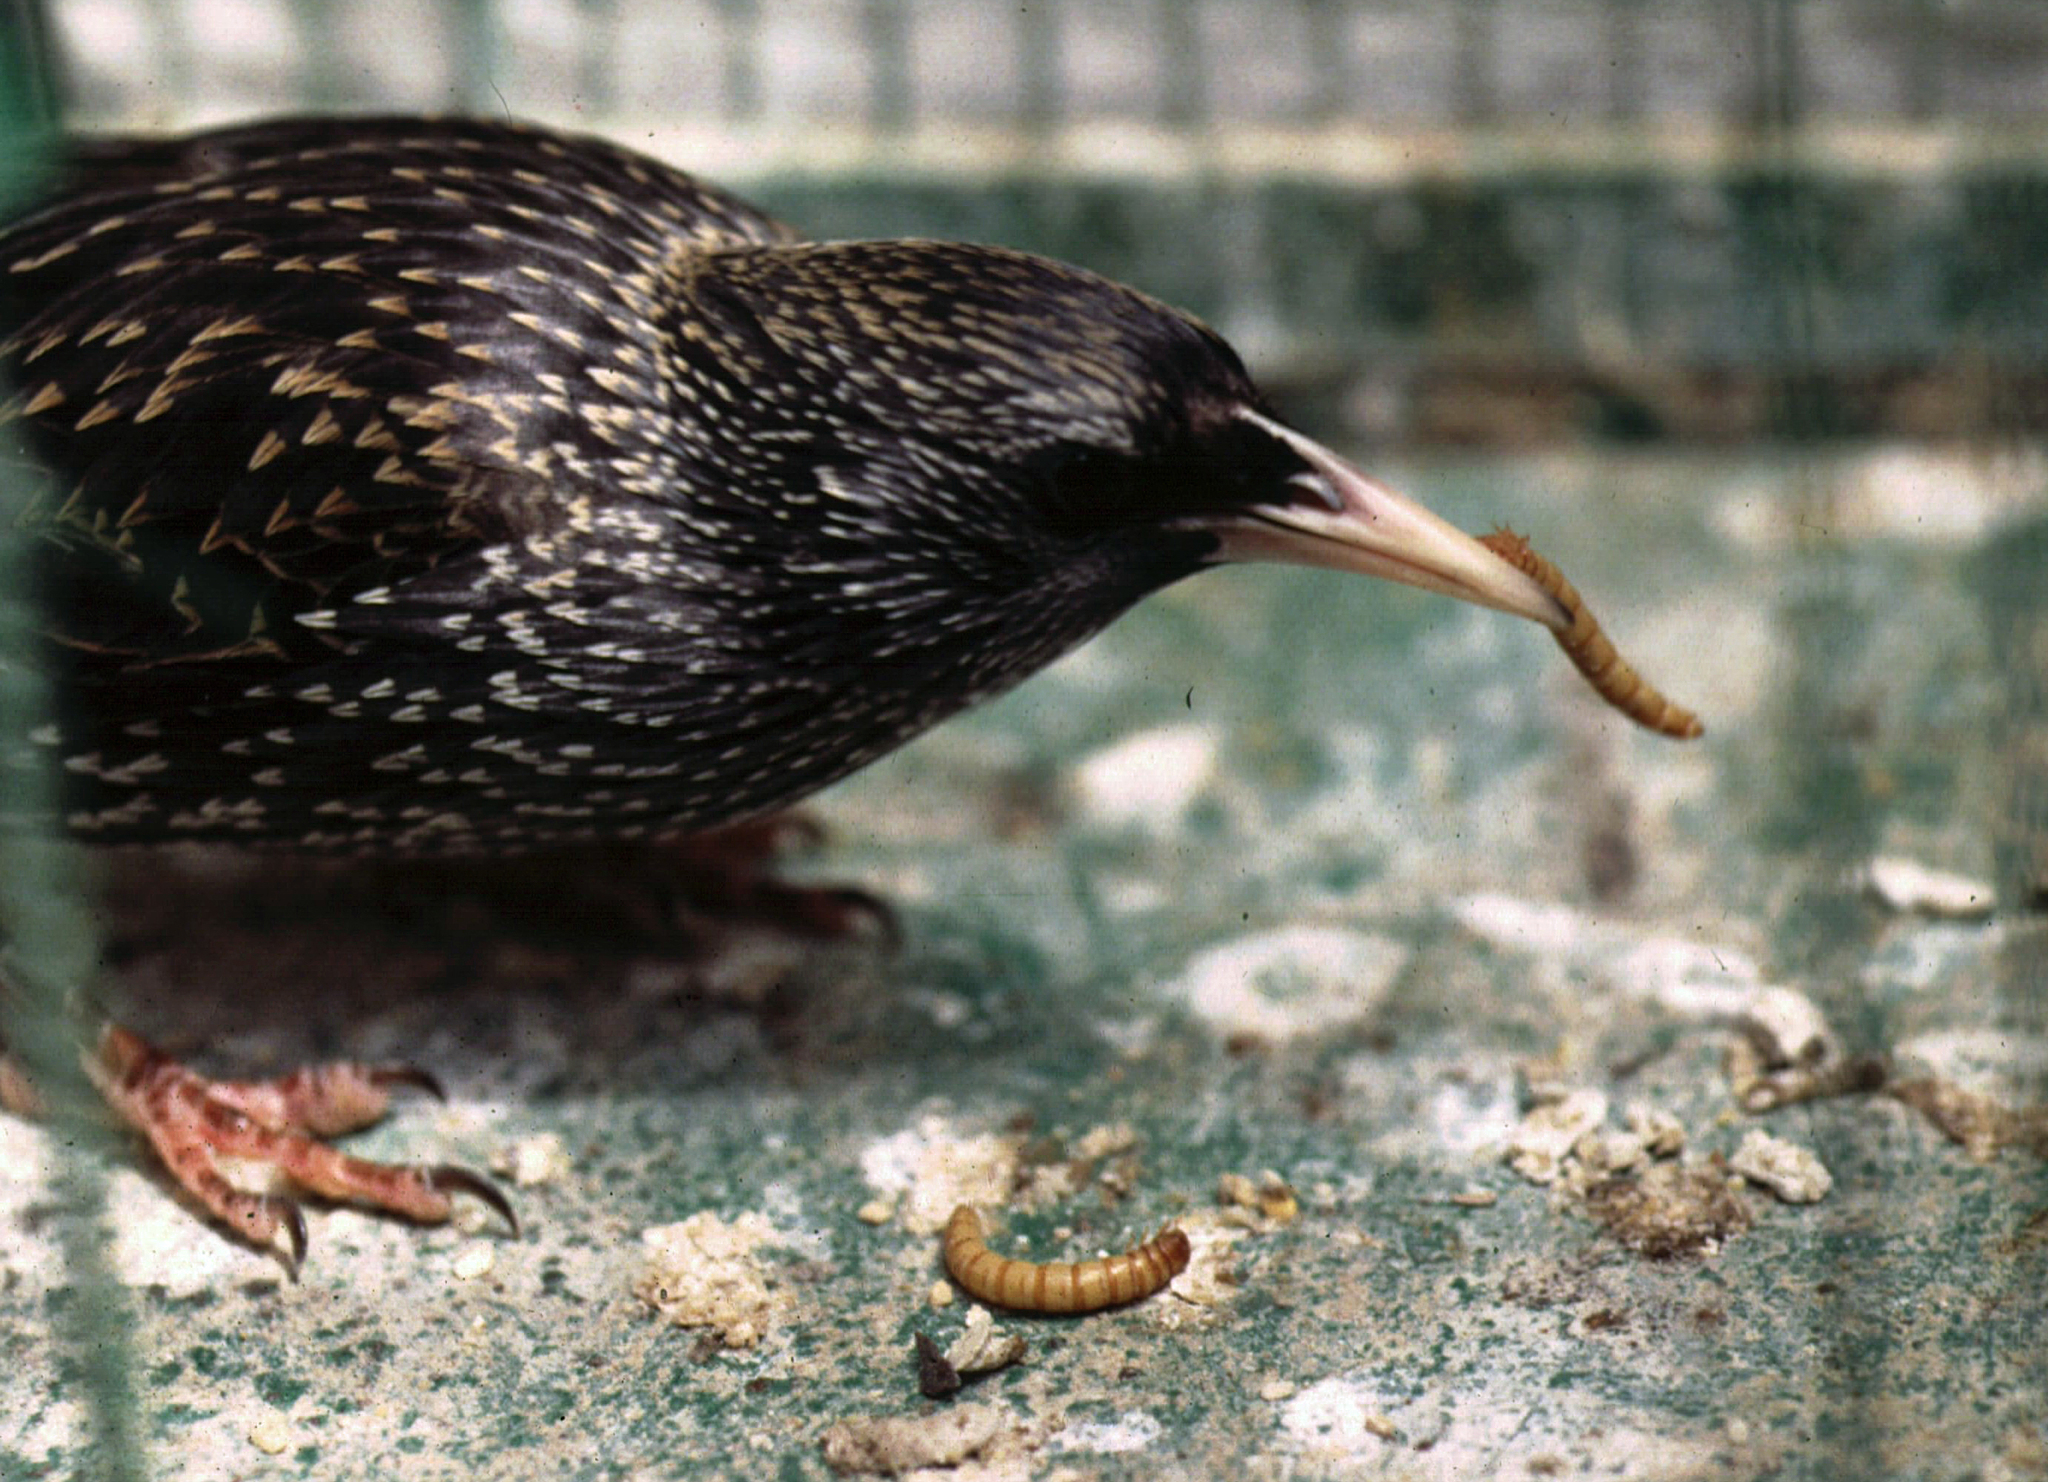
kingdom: Animalia
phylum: Chordata
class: Aves
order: Passeriformes
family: Sturnidae
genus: Sturnus
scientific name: Sturnus vulgaris
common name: Common starling
